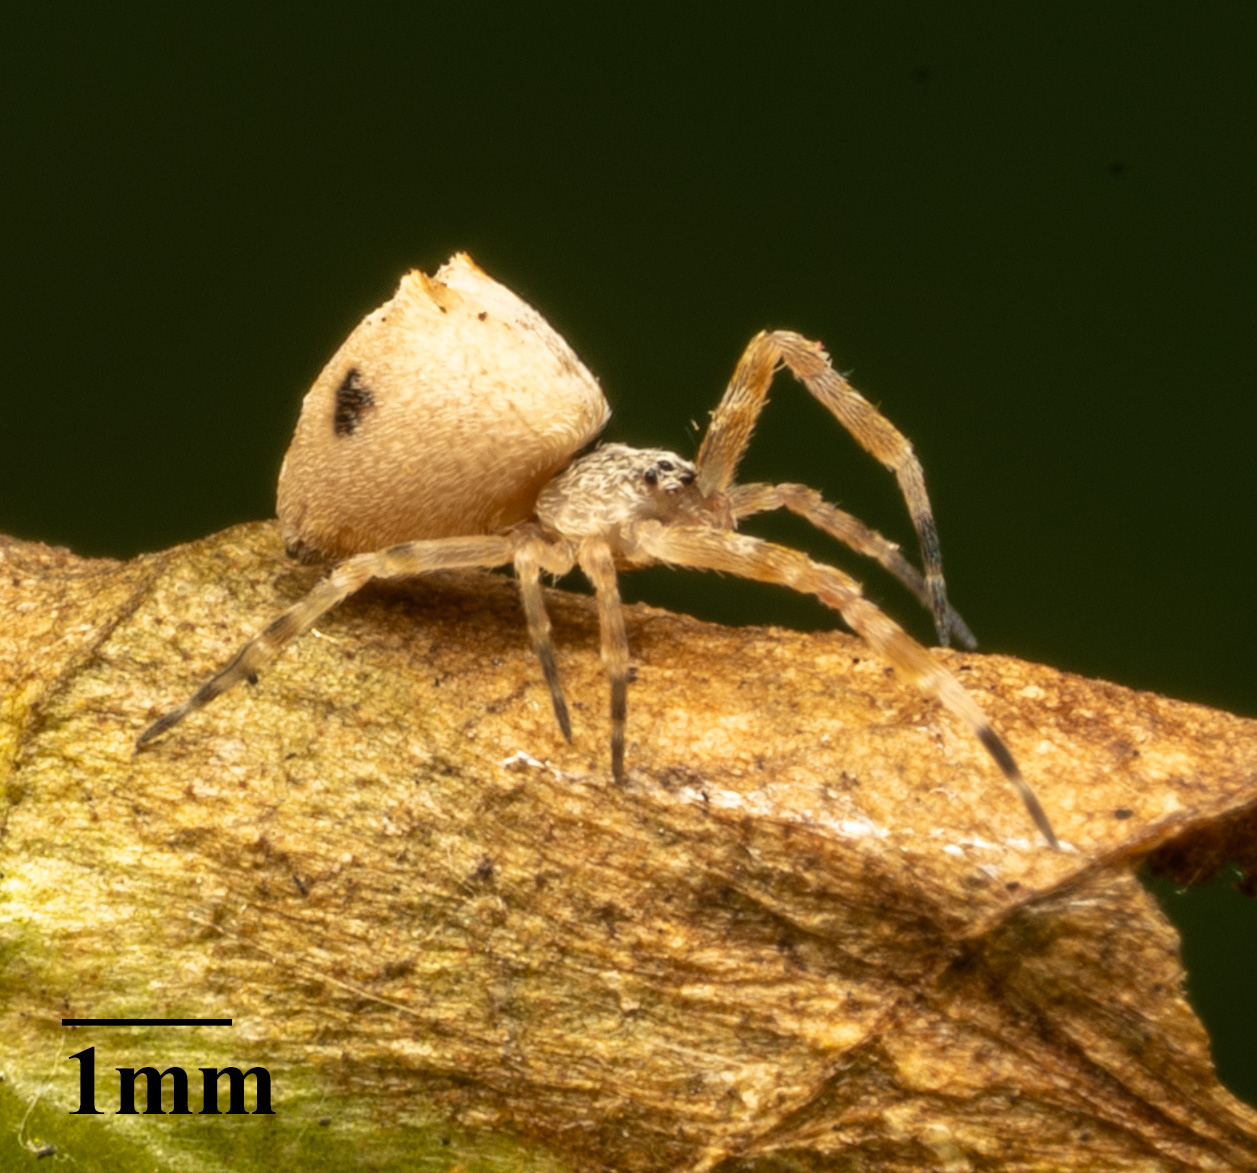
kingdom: Animalia
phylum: Arthropoda
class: Arachnida
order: Araneae
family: Uloboridae
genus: Uloborus
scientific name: Uloborus diversus
